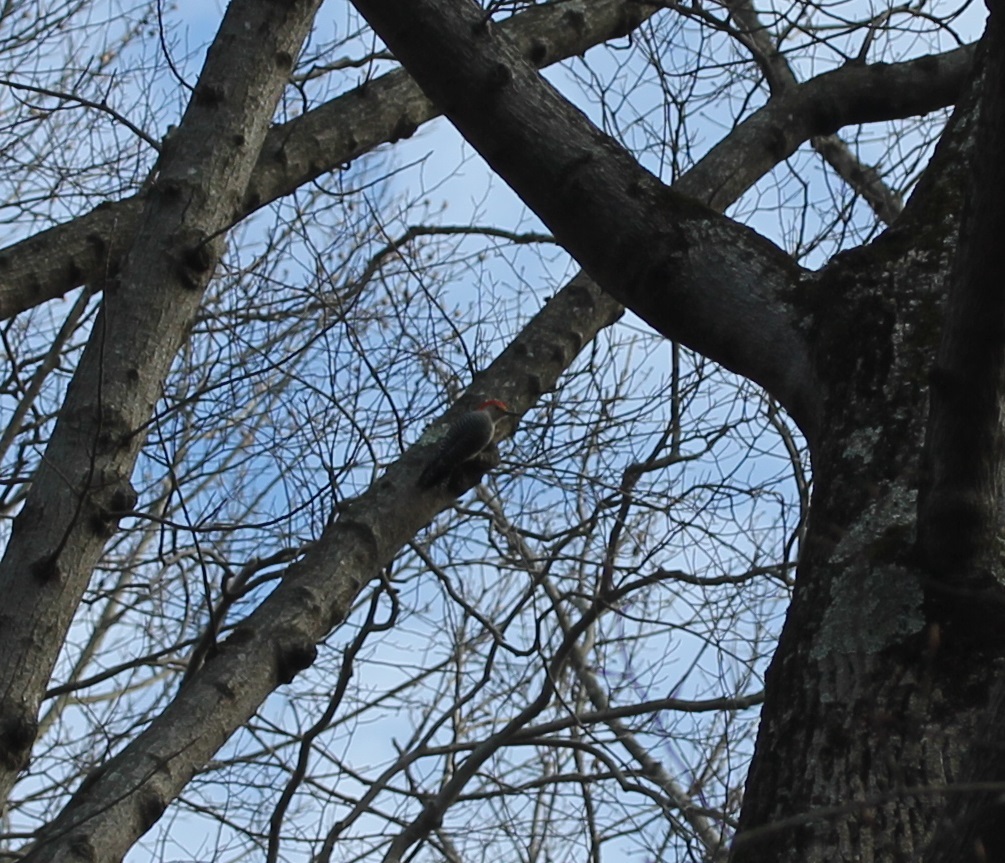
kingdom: Animalia
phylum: Chordata
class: Aves
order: Piciformes
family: Picidae
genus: Melanerpes
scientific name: Melanerpes carolinus
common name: Red-bellied woodpecker
